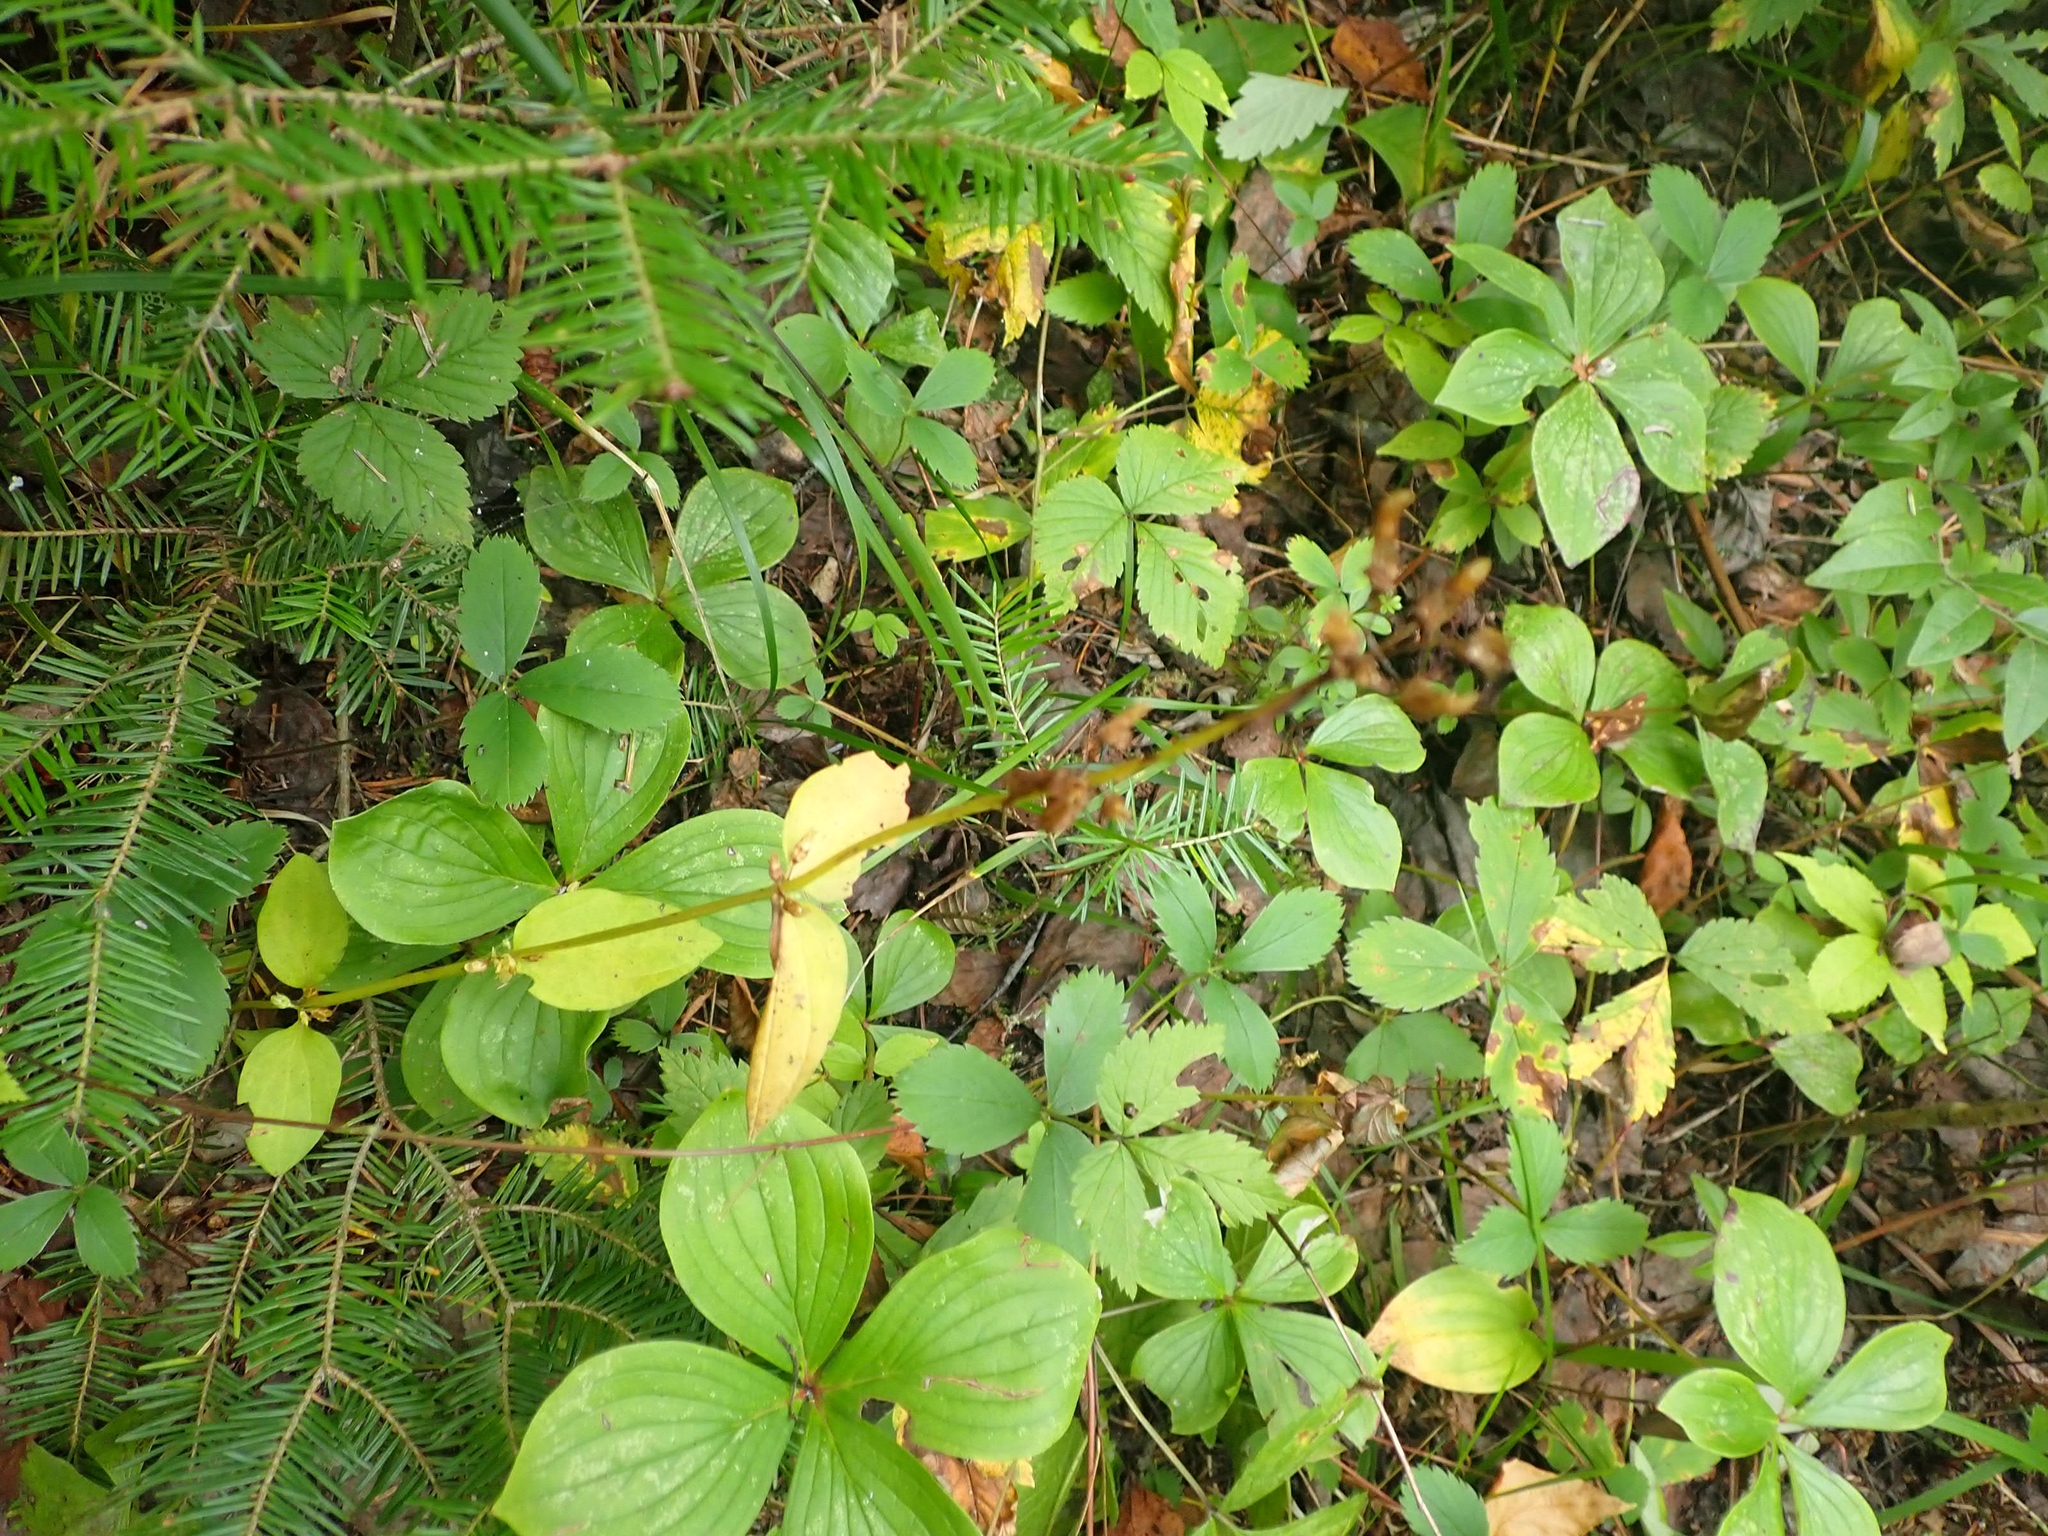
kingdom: Plantae
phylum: Tracheophyta
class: Magnoliopsida
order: Gentianales
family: Gentianaceae
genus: Halenia
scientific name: Halenia deflexa
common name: American spurred gentian
